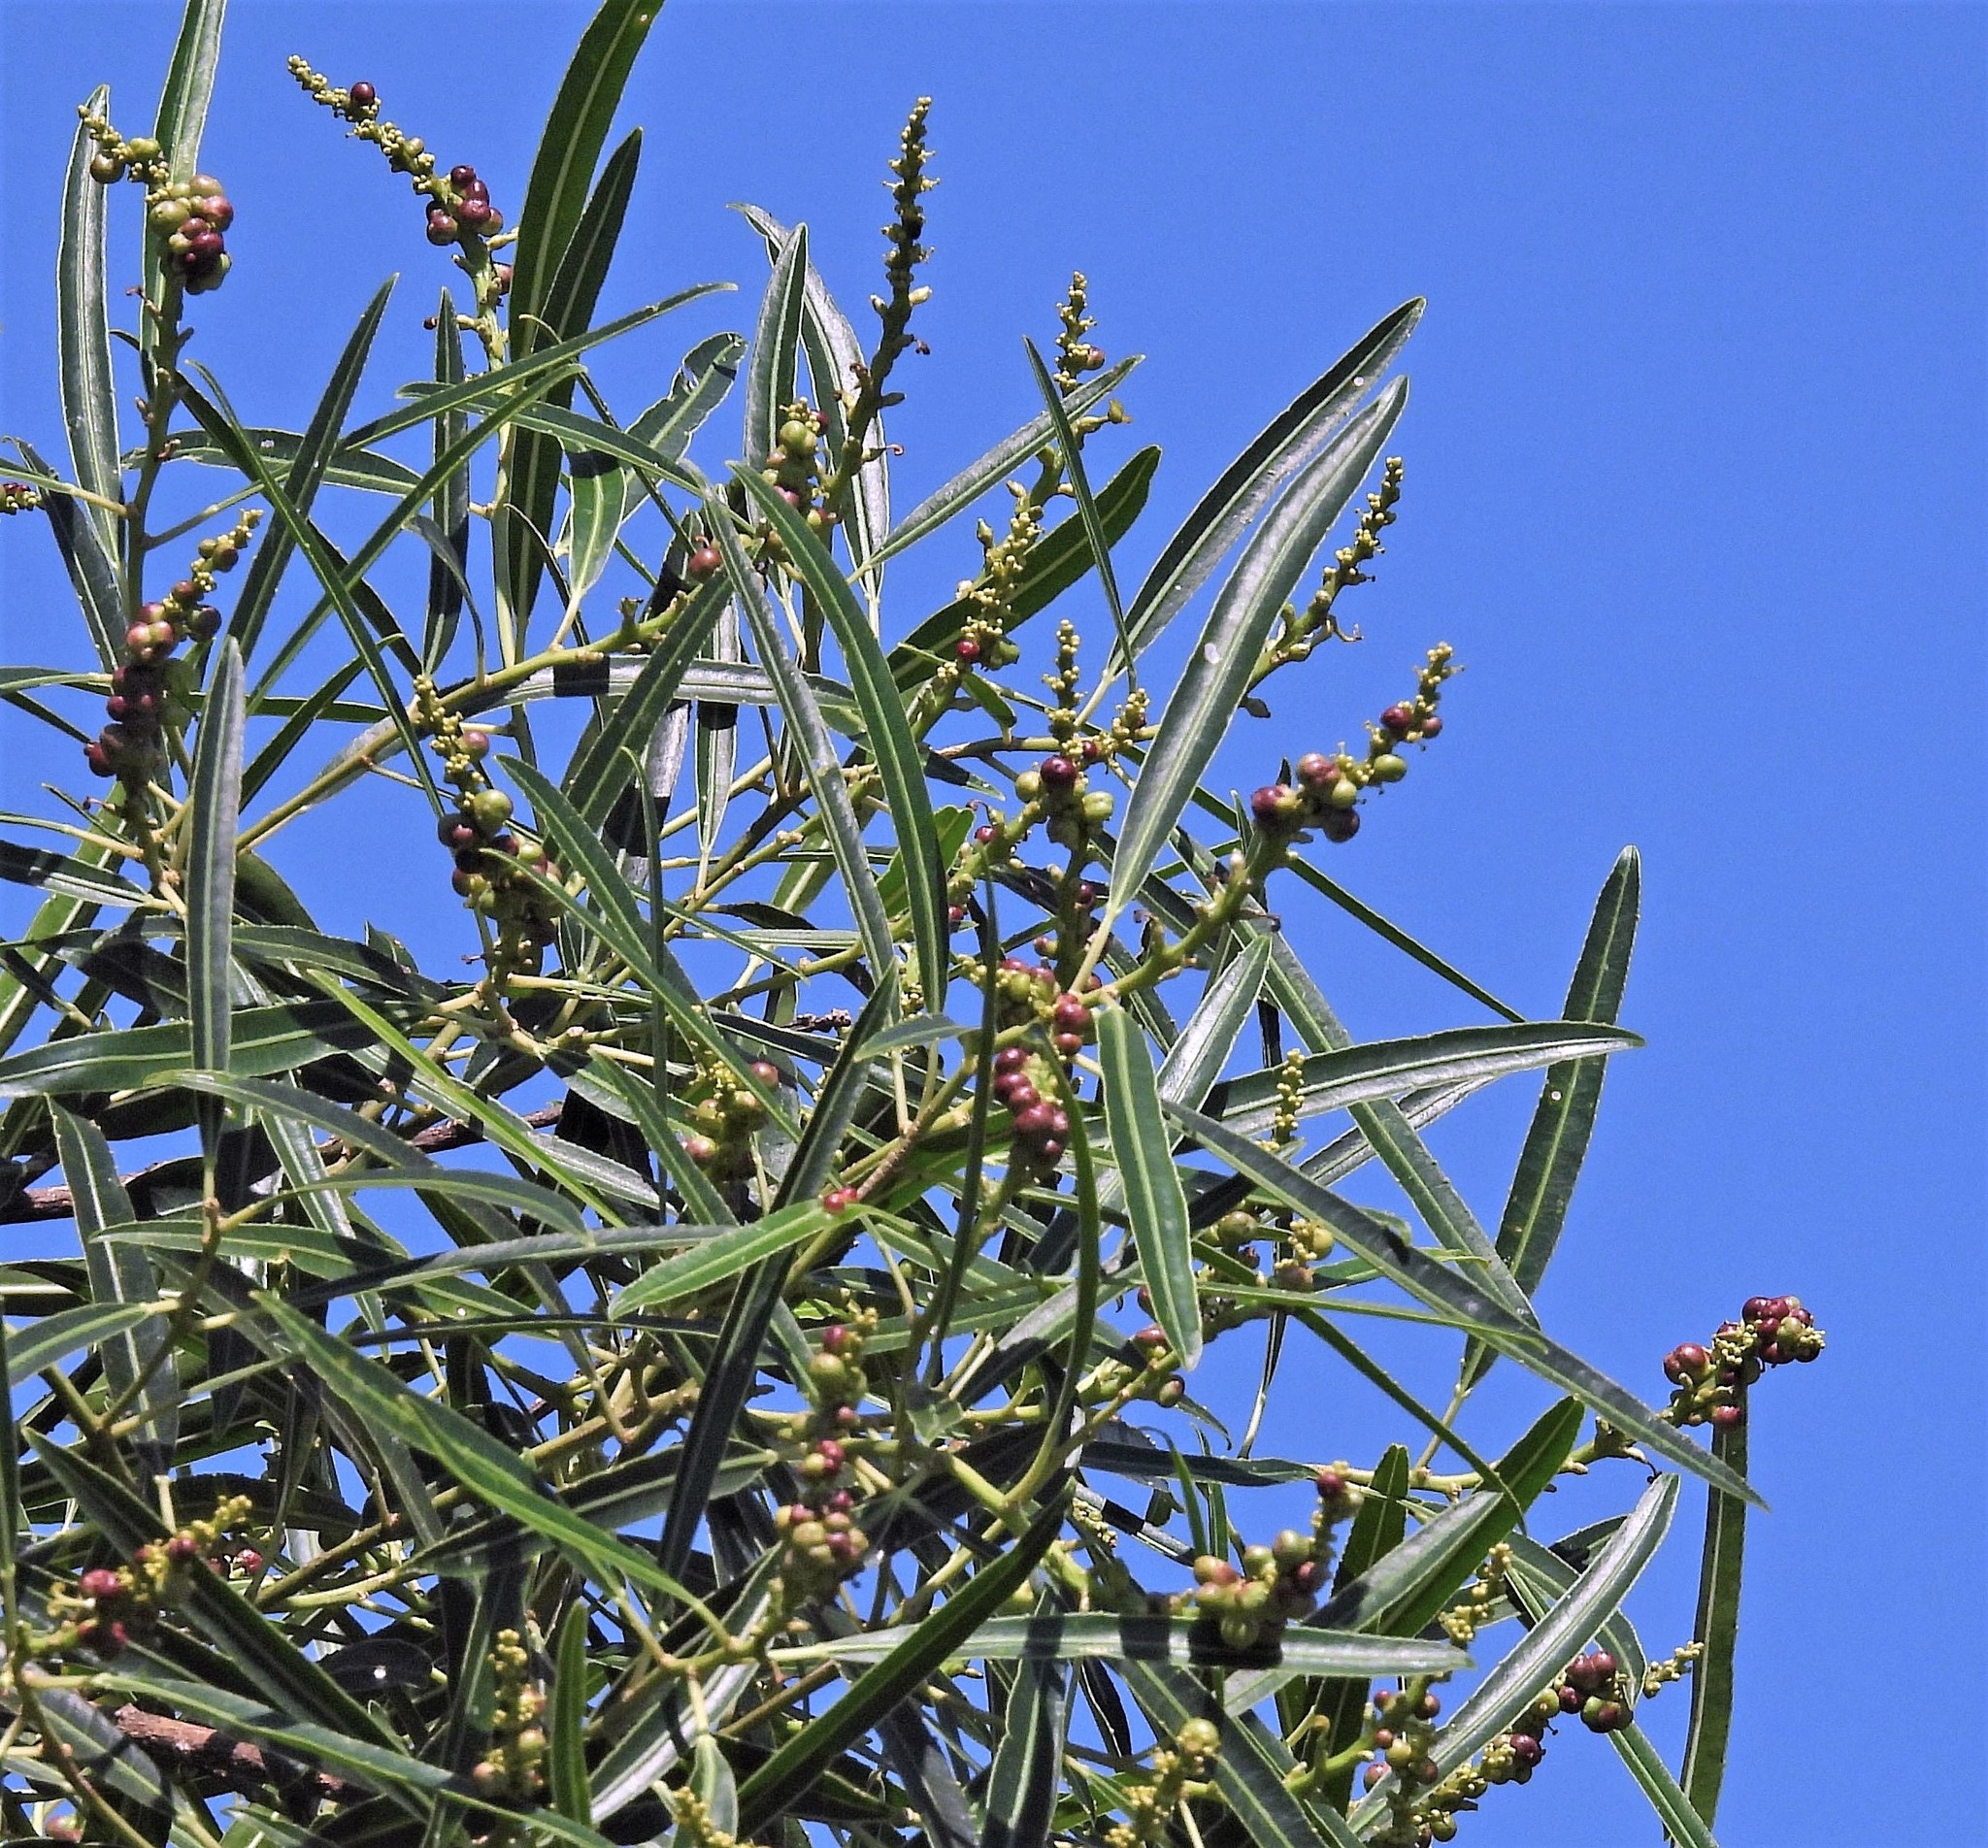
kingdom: Plantae
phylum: Tracheophyta
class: Magnoliopsida
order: Malpighiales
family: Euphorbiaceae
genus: Sapium
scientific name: Sapium haematospermum
